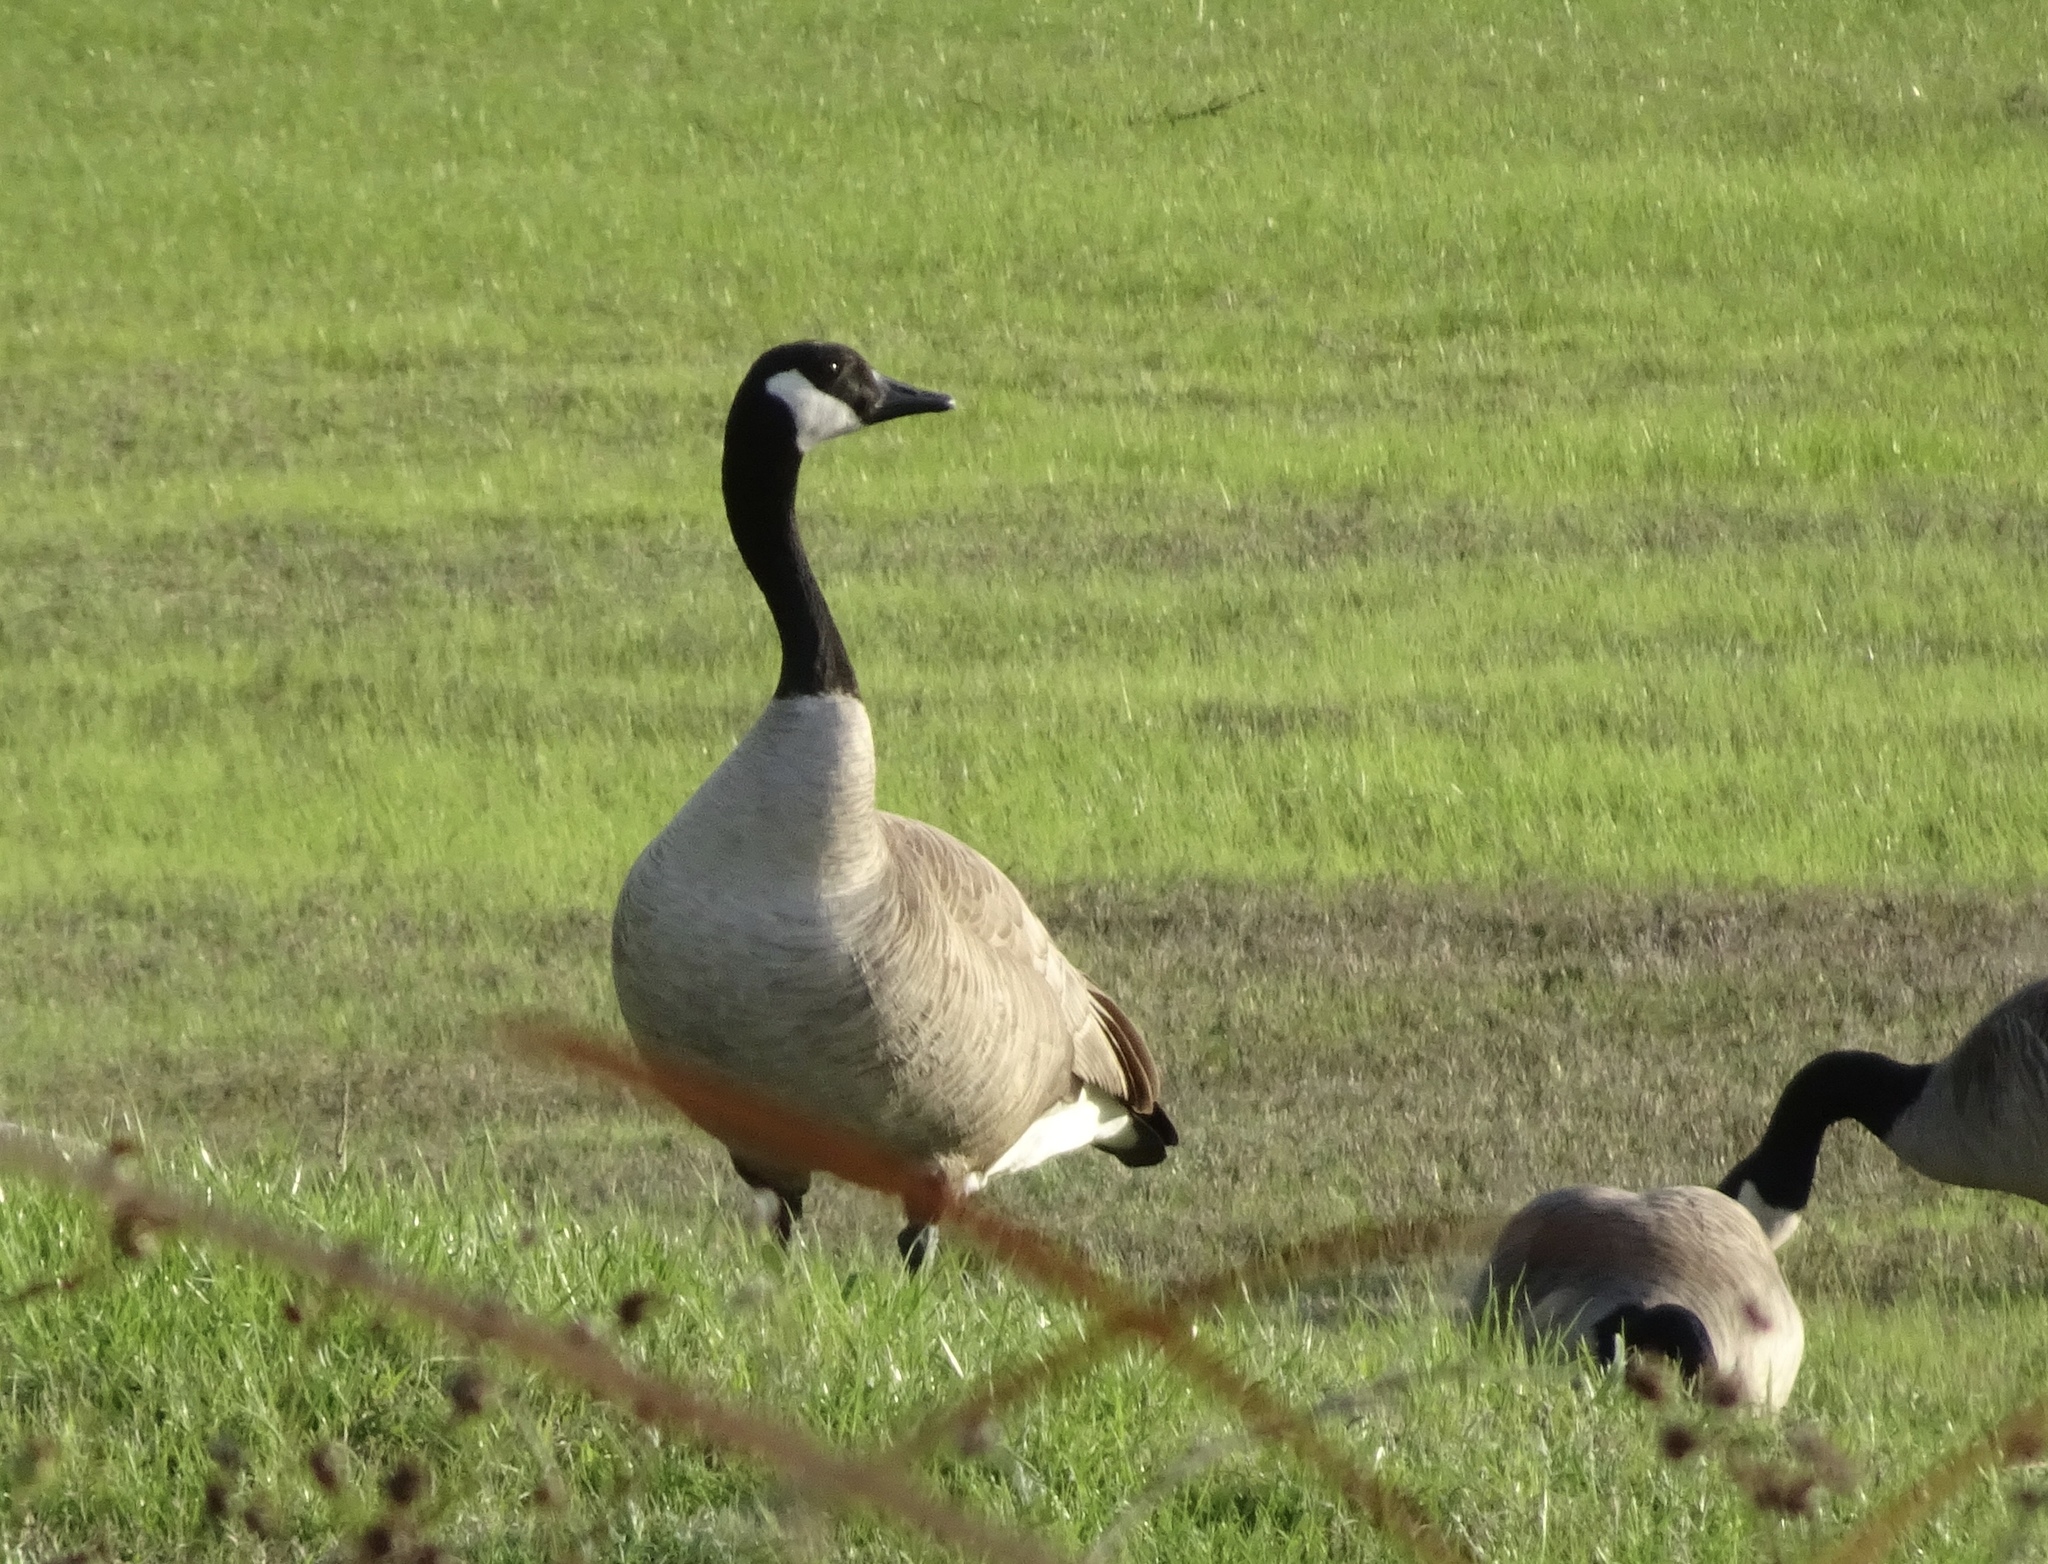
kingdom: Animalia
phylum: Chordata
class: Aves
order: Anseriformes
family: Anatidae
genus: Branta
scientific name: Branta canadensis
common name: Canada goose
